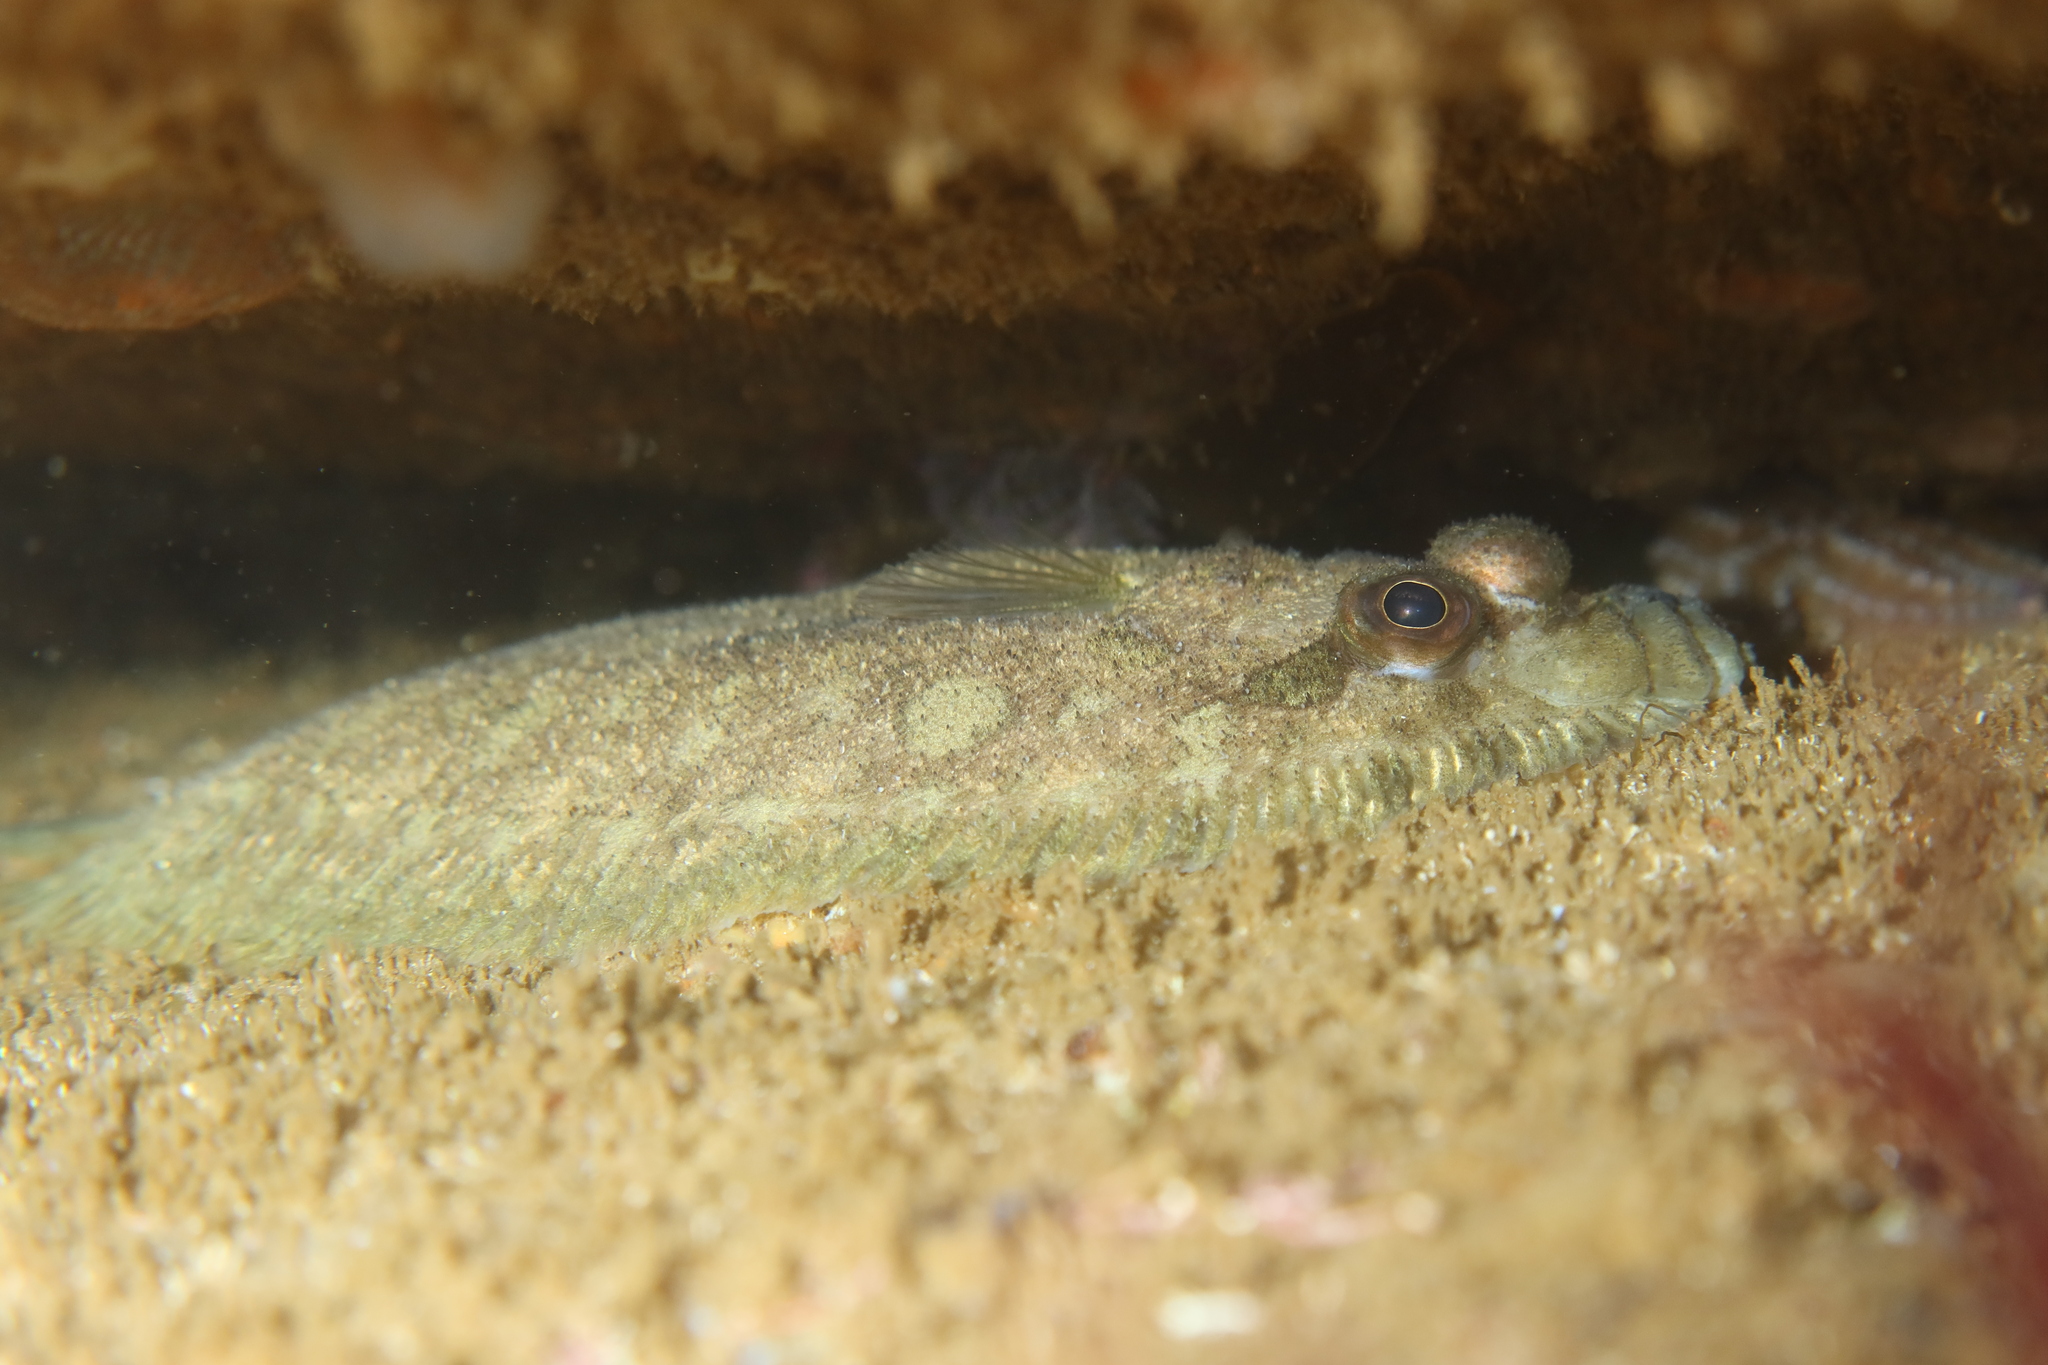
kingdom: Animalia
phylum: Chordata
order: Pleuronectiformes
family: Scophthalmidae
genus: Zeugopterus
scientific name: Zeugopterus punctatus
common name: Topknot
